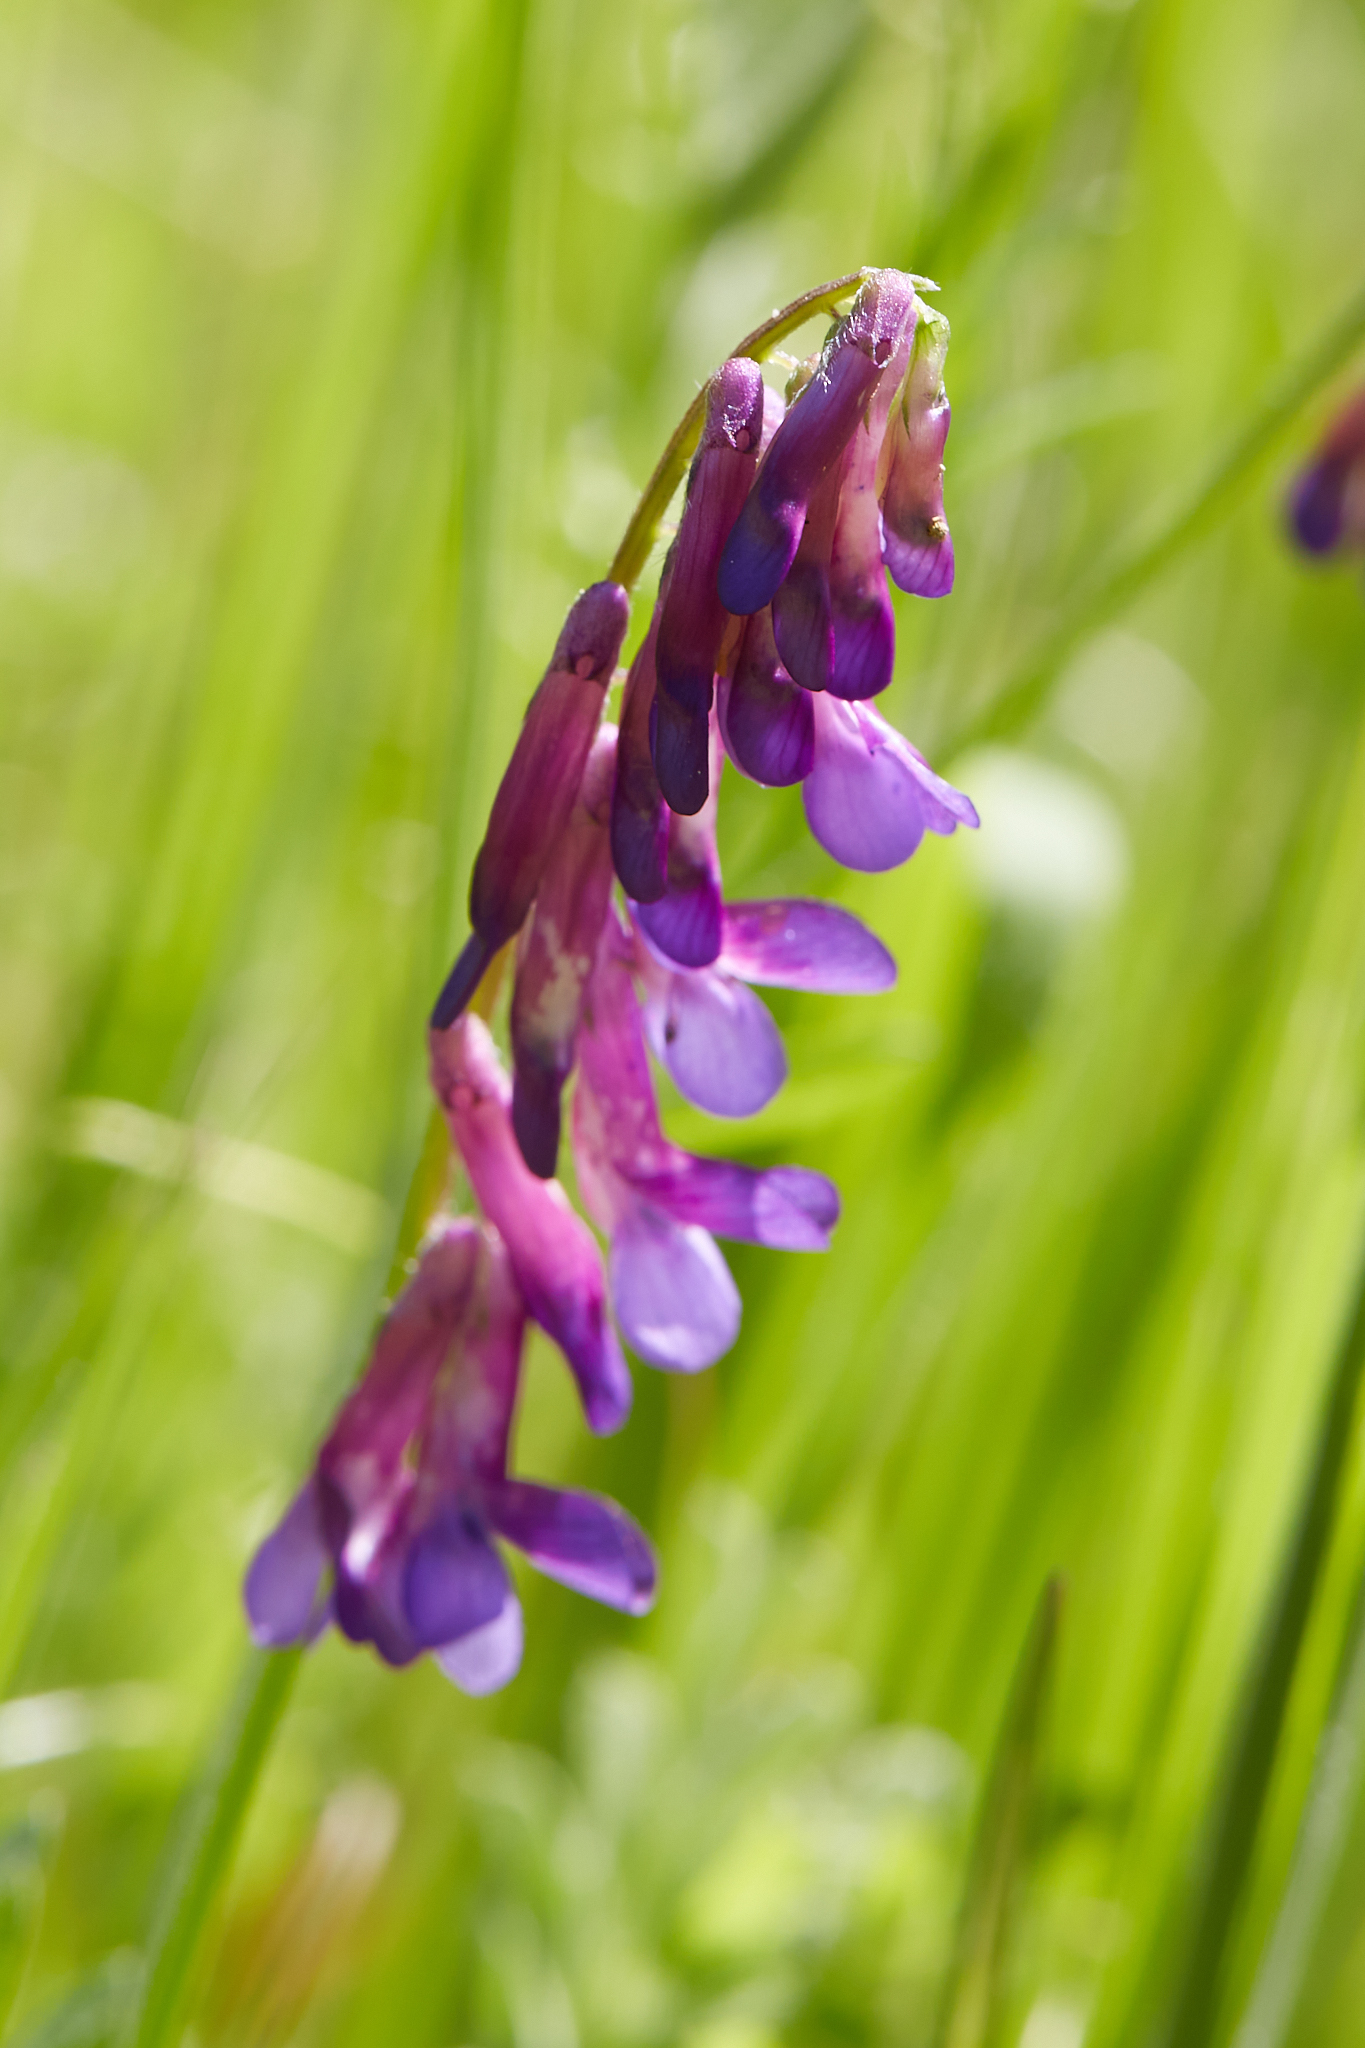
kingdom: Plantae
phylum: Tracheophyta
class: Magnoliopsida
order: Fabales
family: Fabaceae
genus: Vicia
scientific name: Vicia villosa
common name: Fodder vetch
